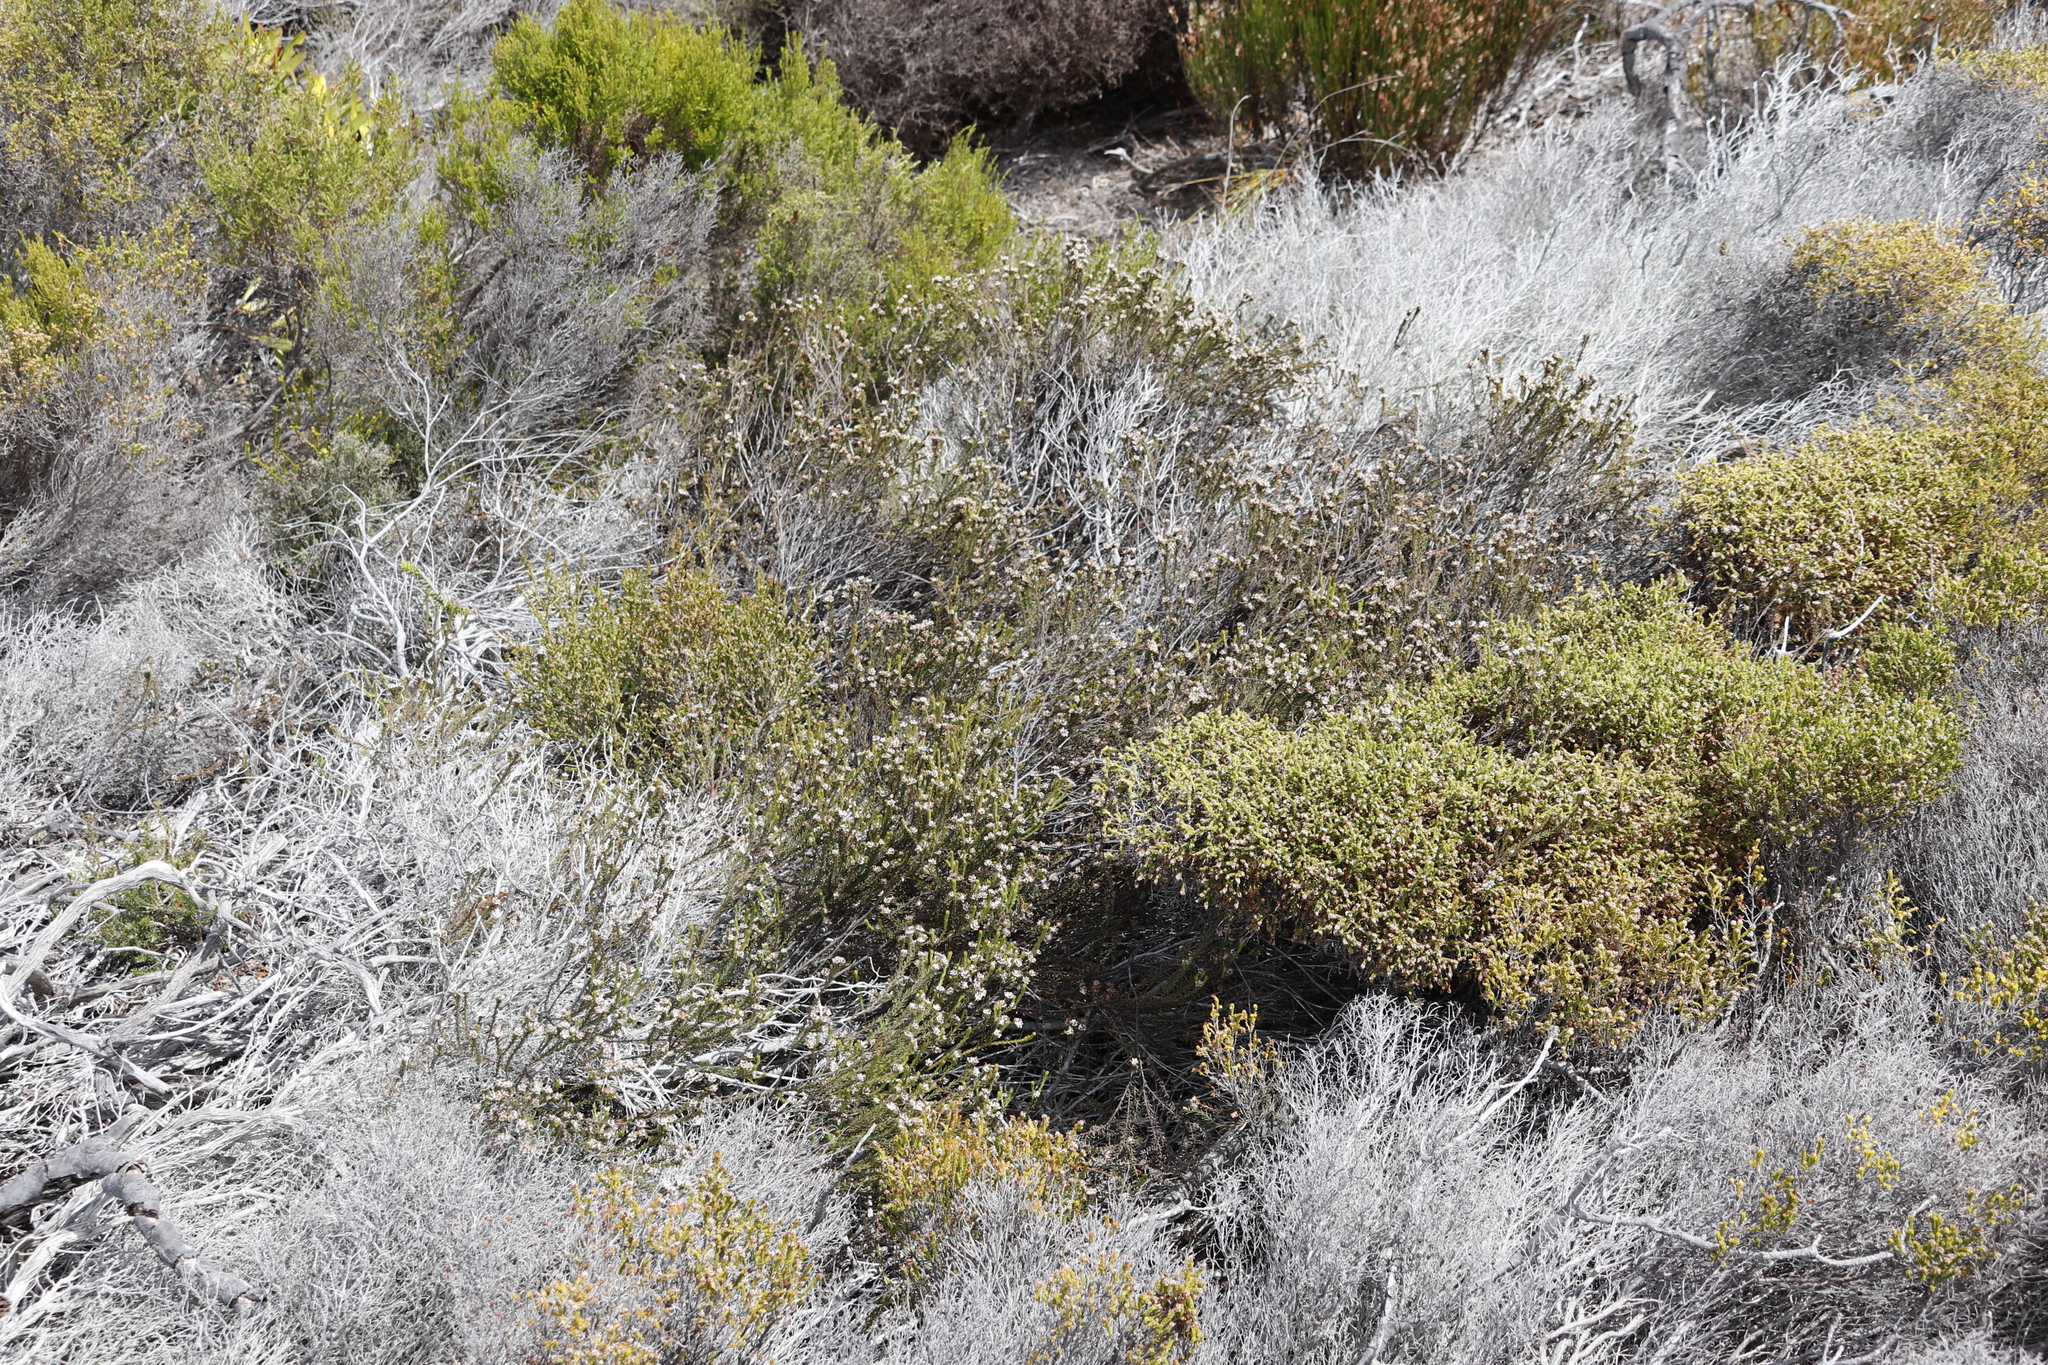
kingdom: Plantae
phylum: Tracheophyta
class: Magnoliopsida
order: Bruniales
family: Bruniaceae
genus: Staavia
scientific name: Staavia radiata
